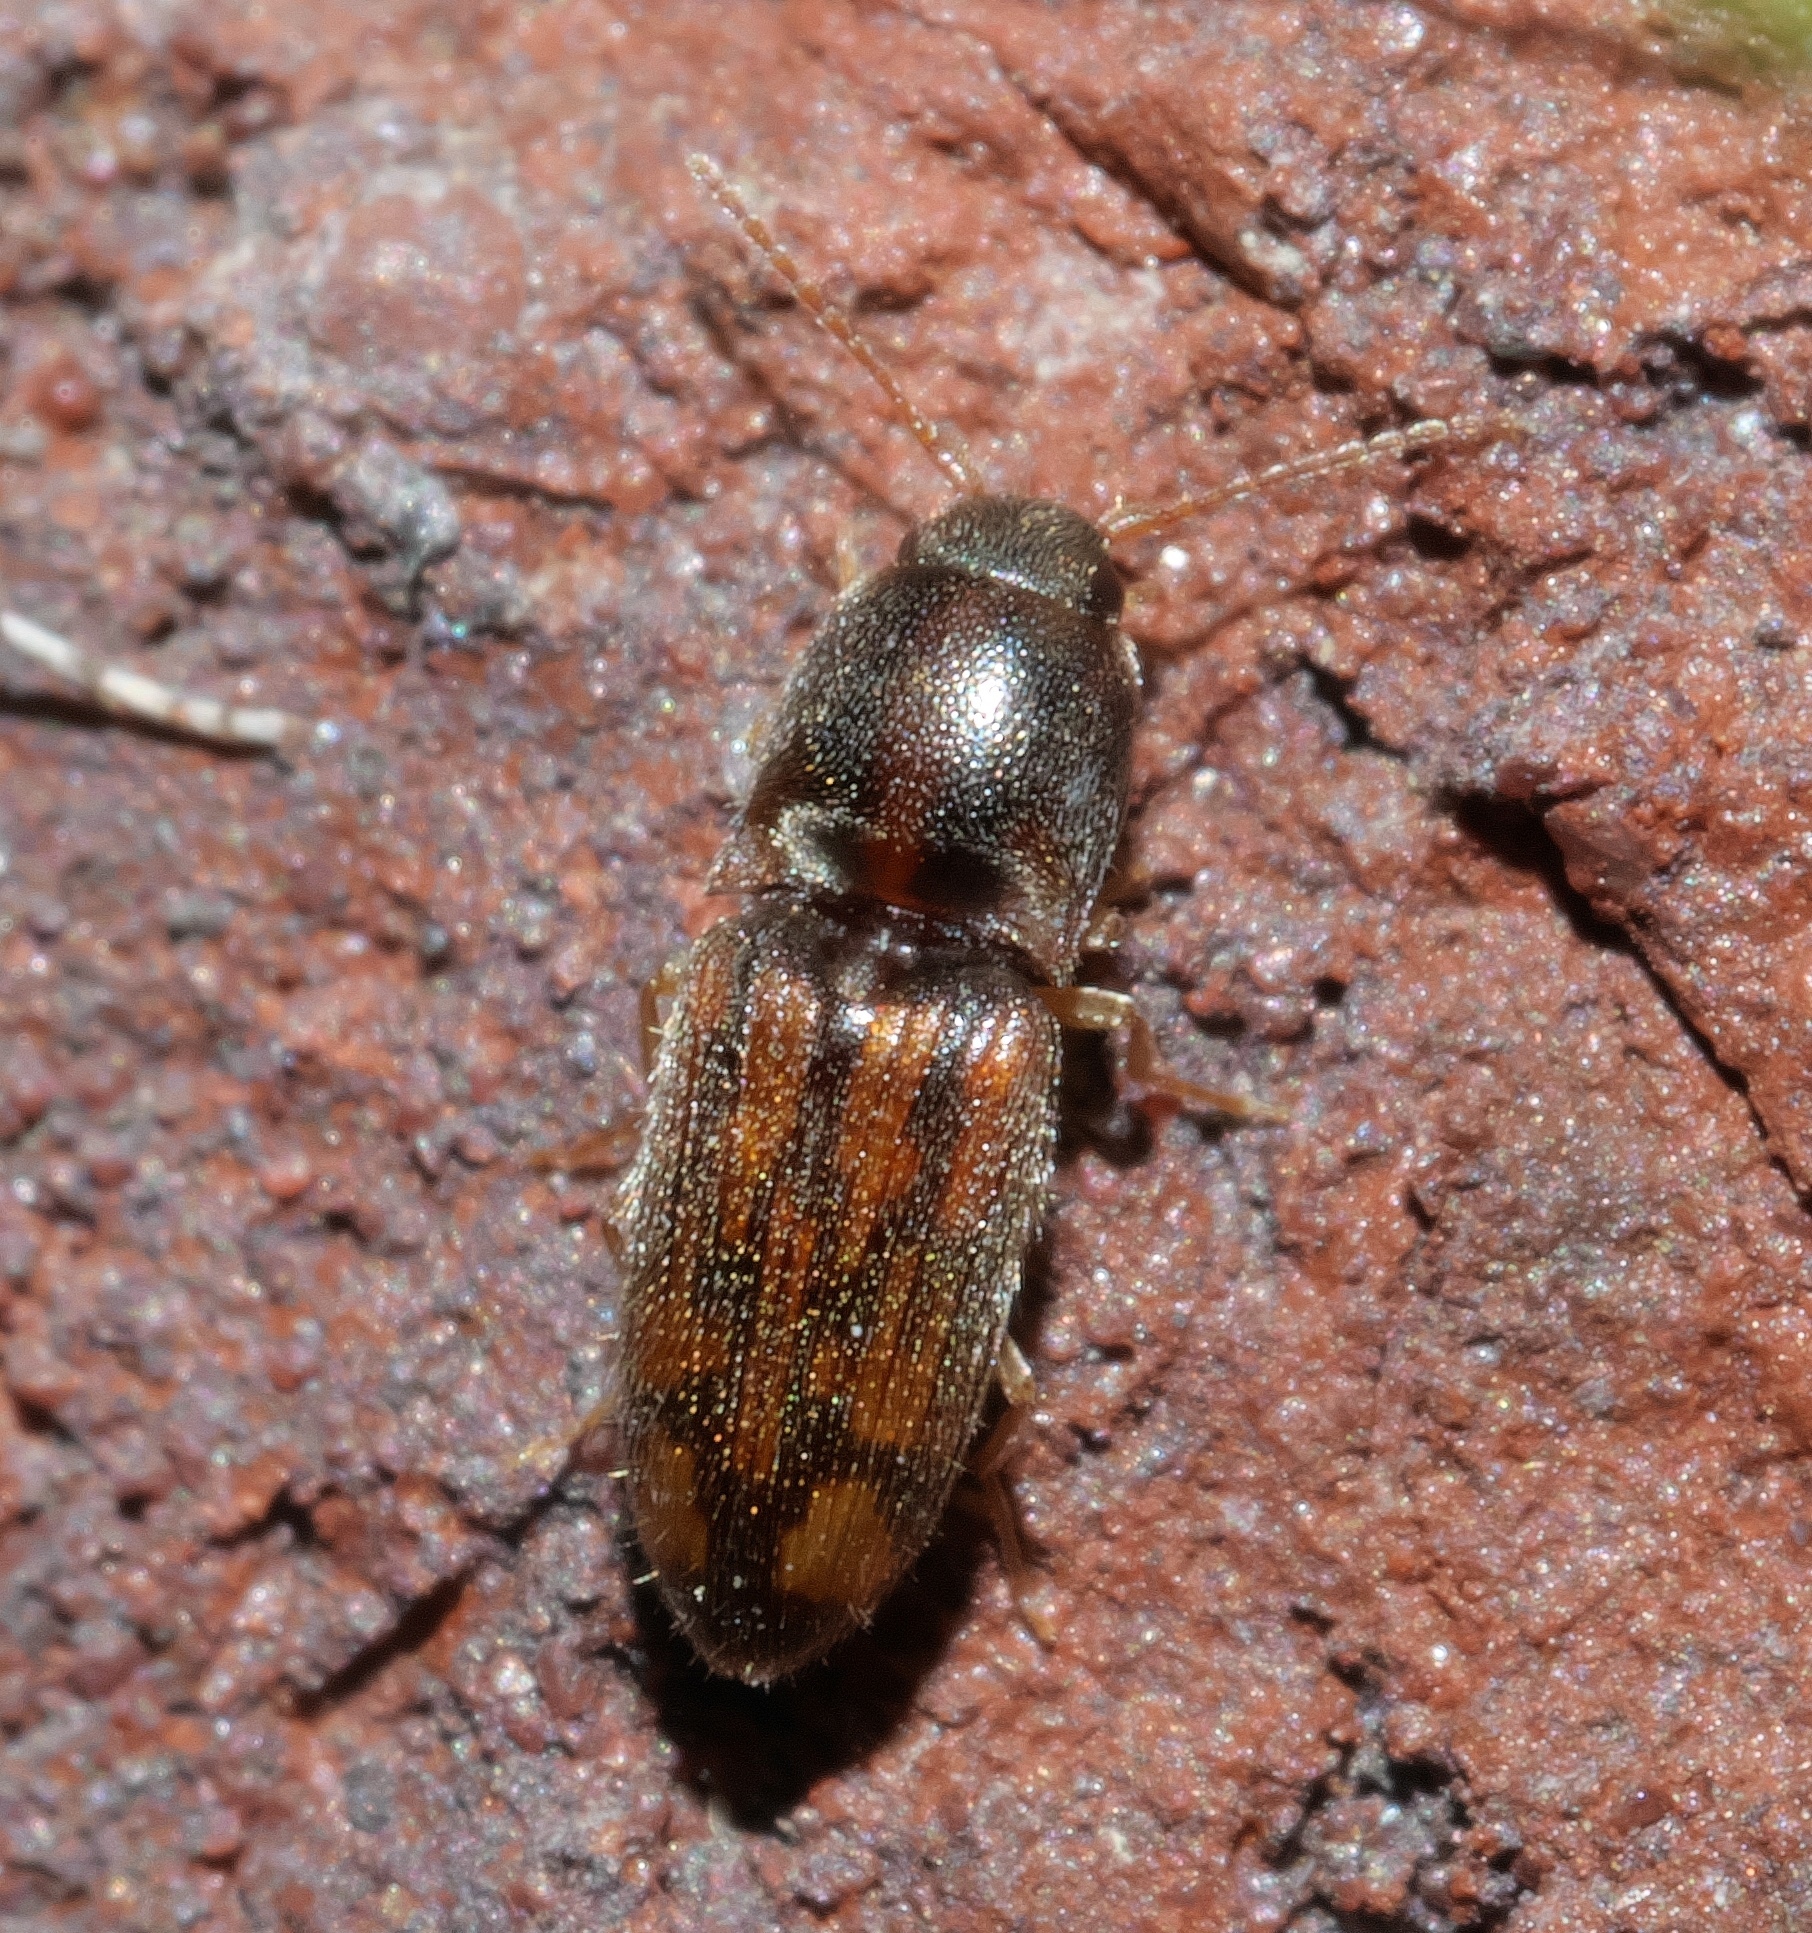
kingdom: Animalia
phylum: Arthropoda
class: Insecta
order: Coleoptera
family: Elateridae
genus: Monocrepidius
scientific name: Monocrepidius bellus
